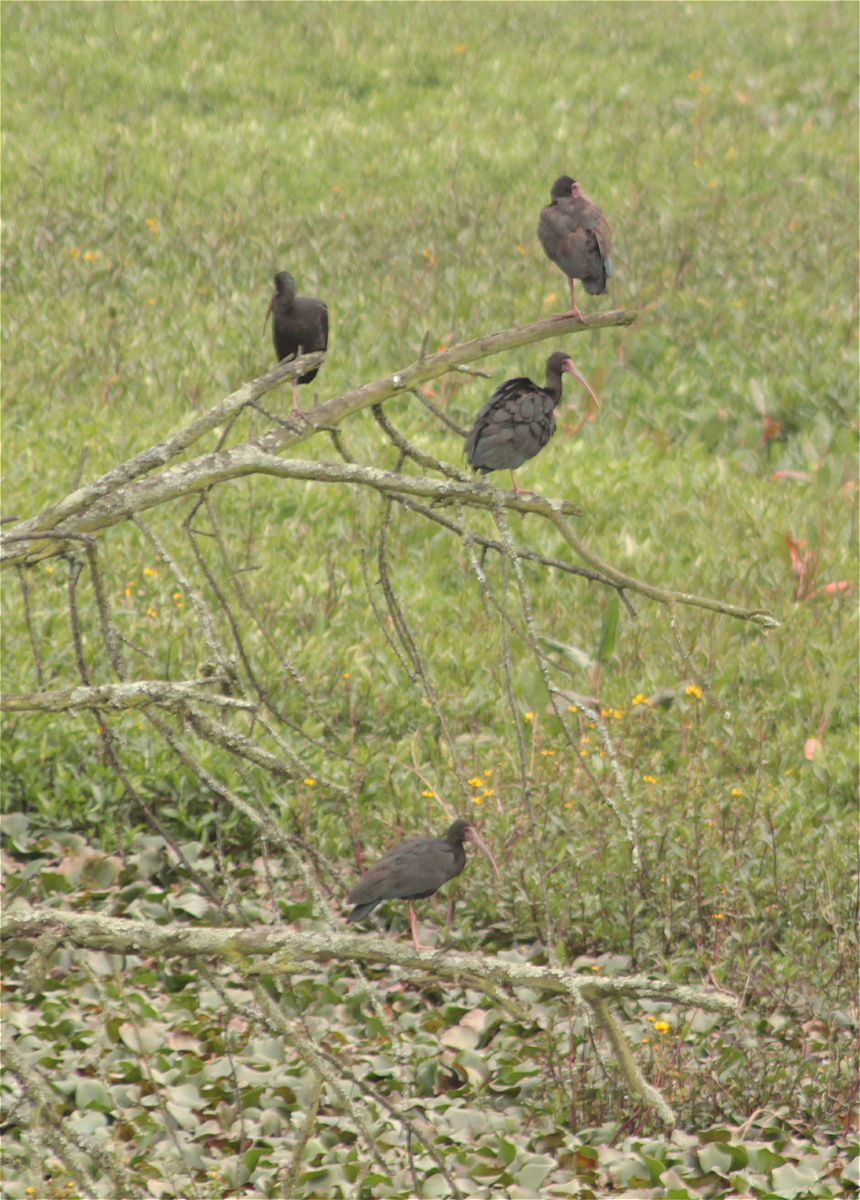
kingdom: Animalia
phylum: Chordata
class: Aves
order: Pelecaniformes
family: Threskiornithidae
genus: Phimosus
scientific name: Phimosus infuscatus
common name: Bare-faced ibis
